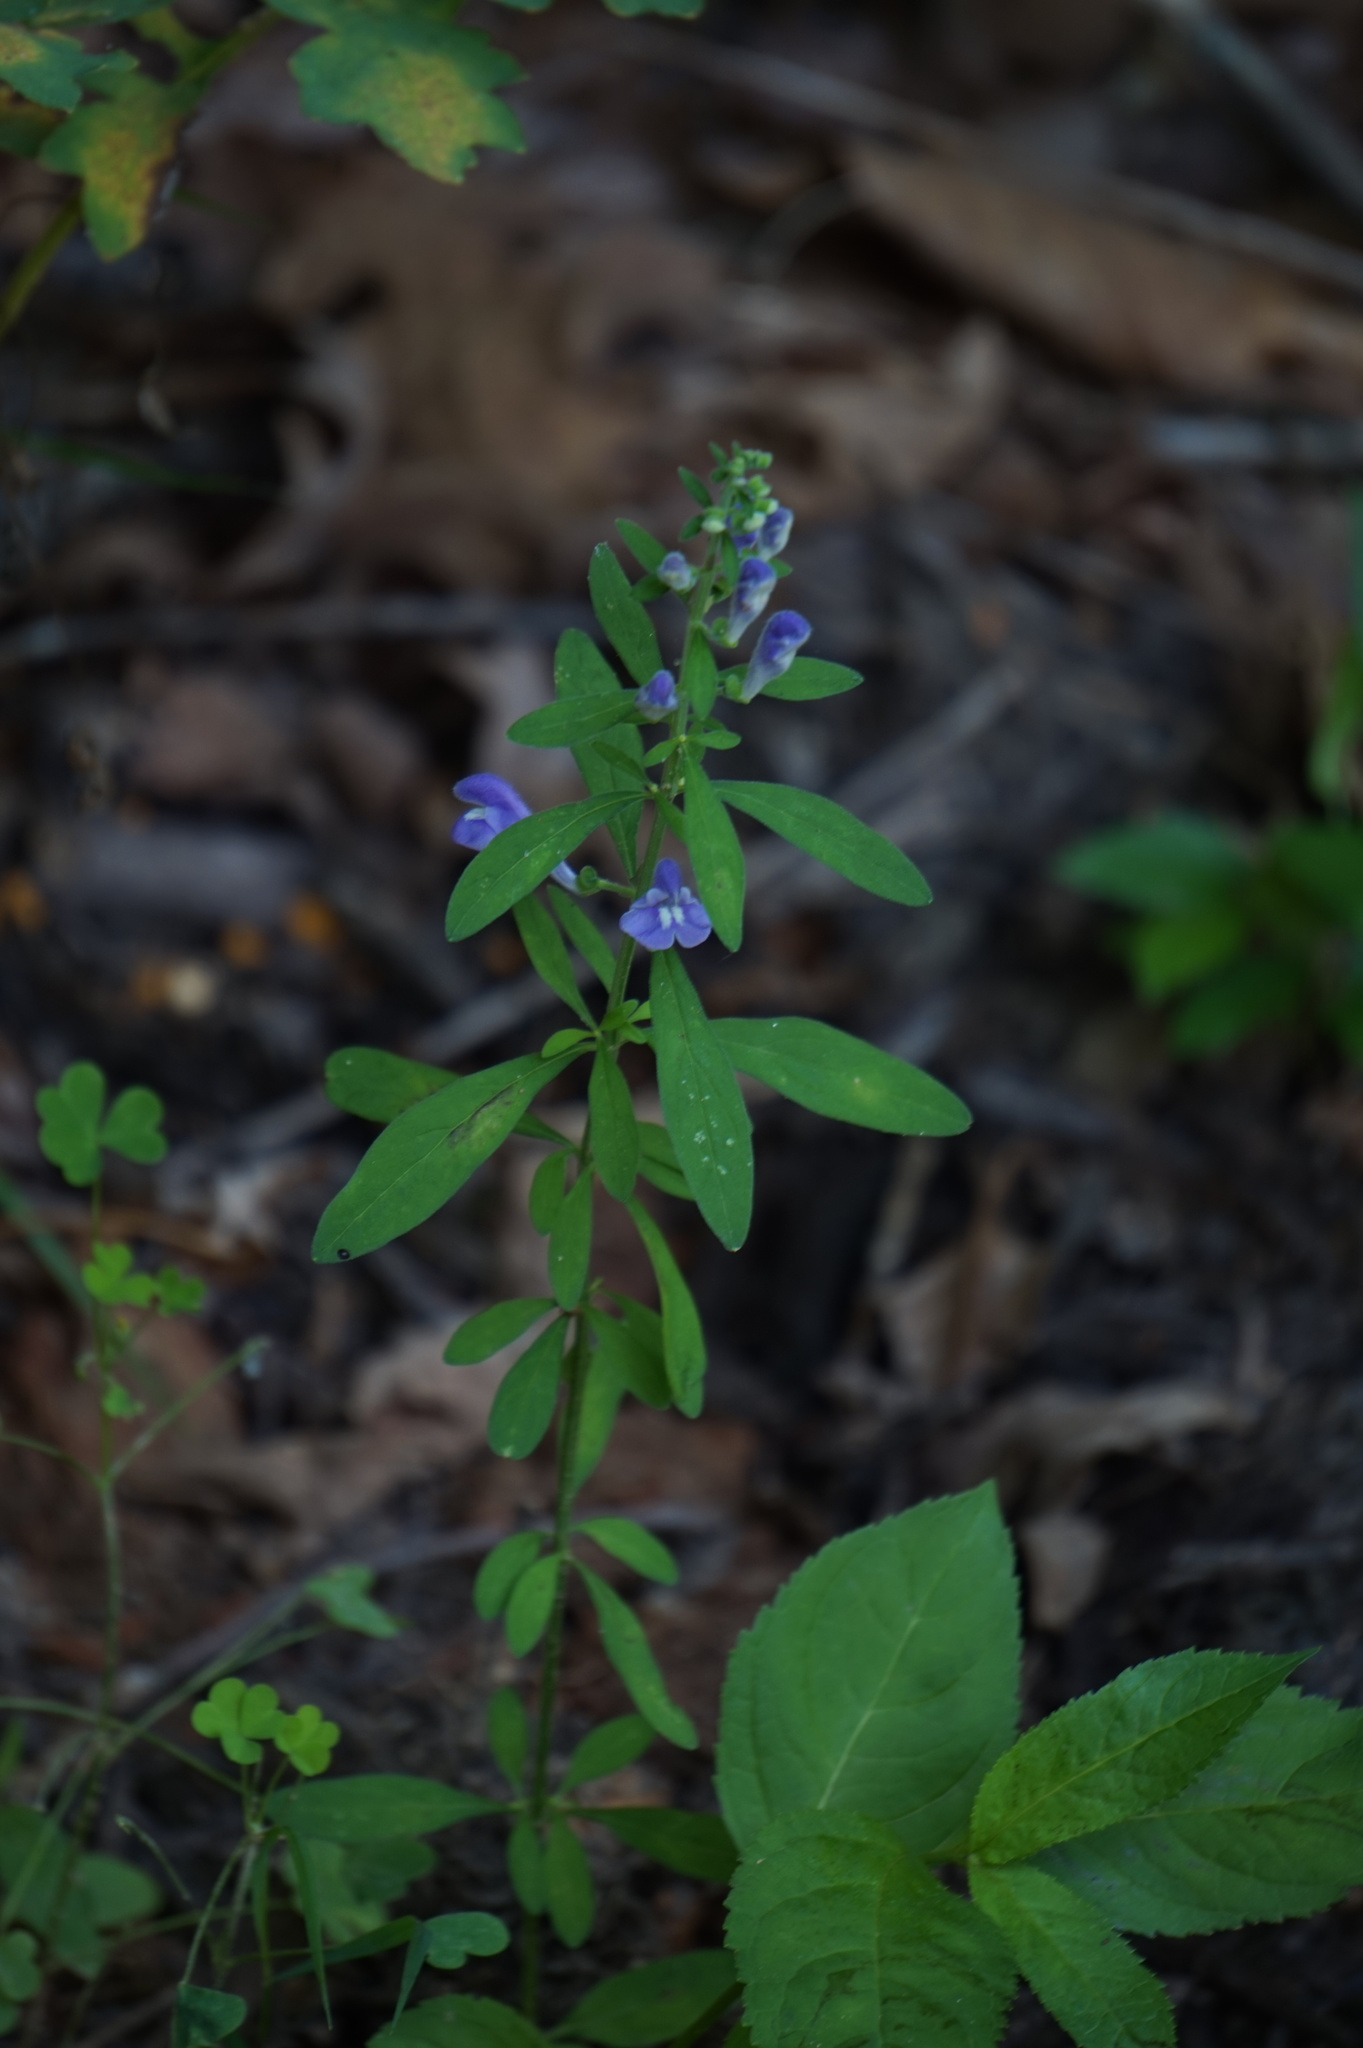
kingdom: Plantae
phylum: Tracheophyta
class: Magnoliopsida
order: Lamiales
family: Lamiaceae
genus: Scutellaria
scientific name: Scutellaria integrifolia
